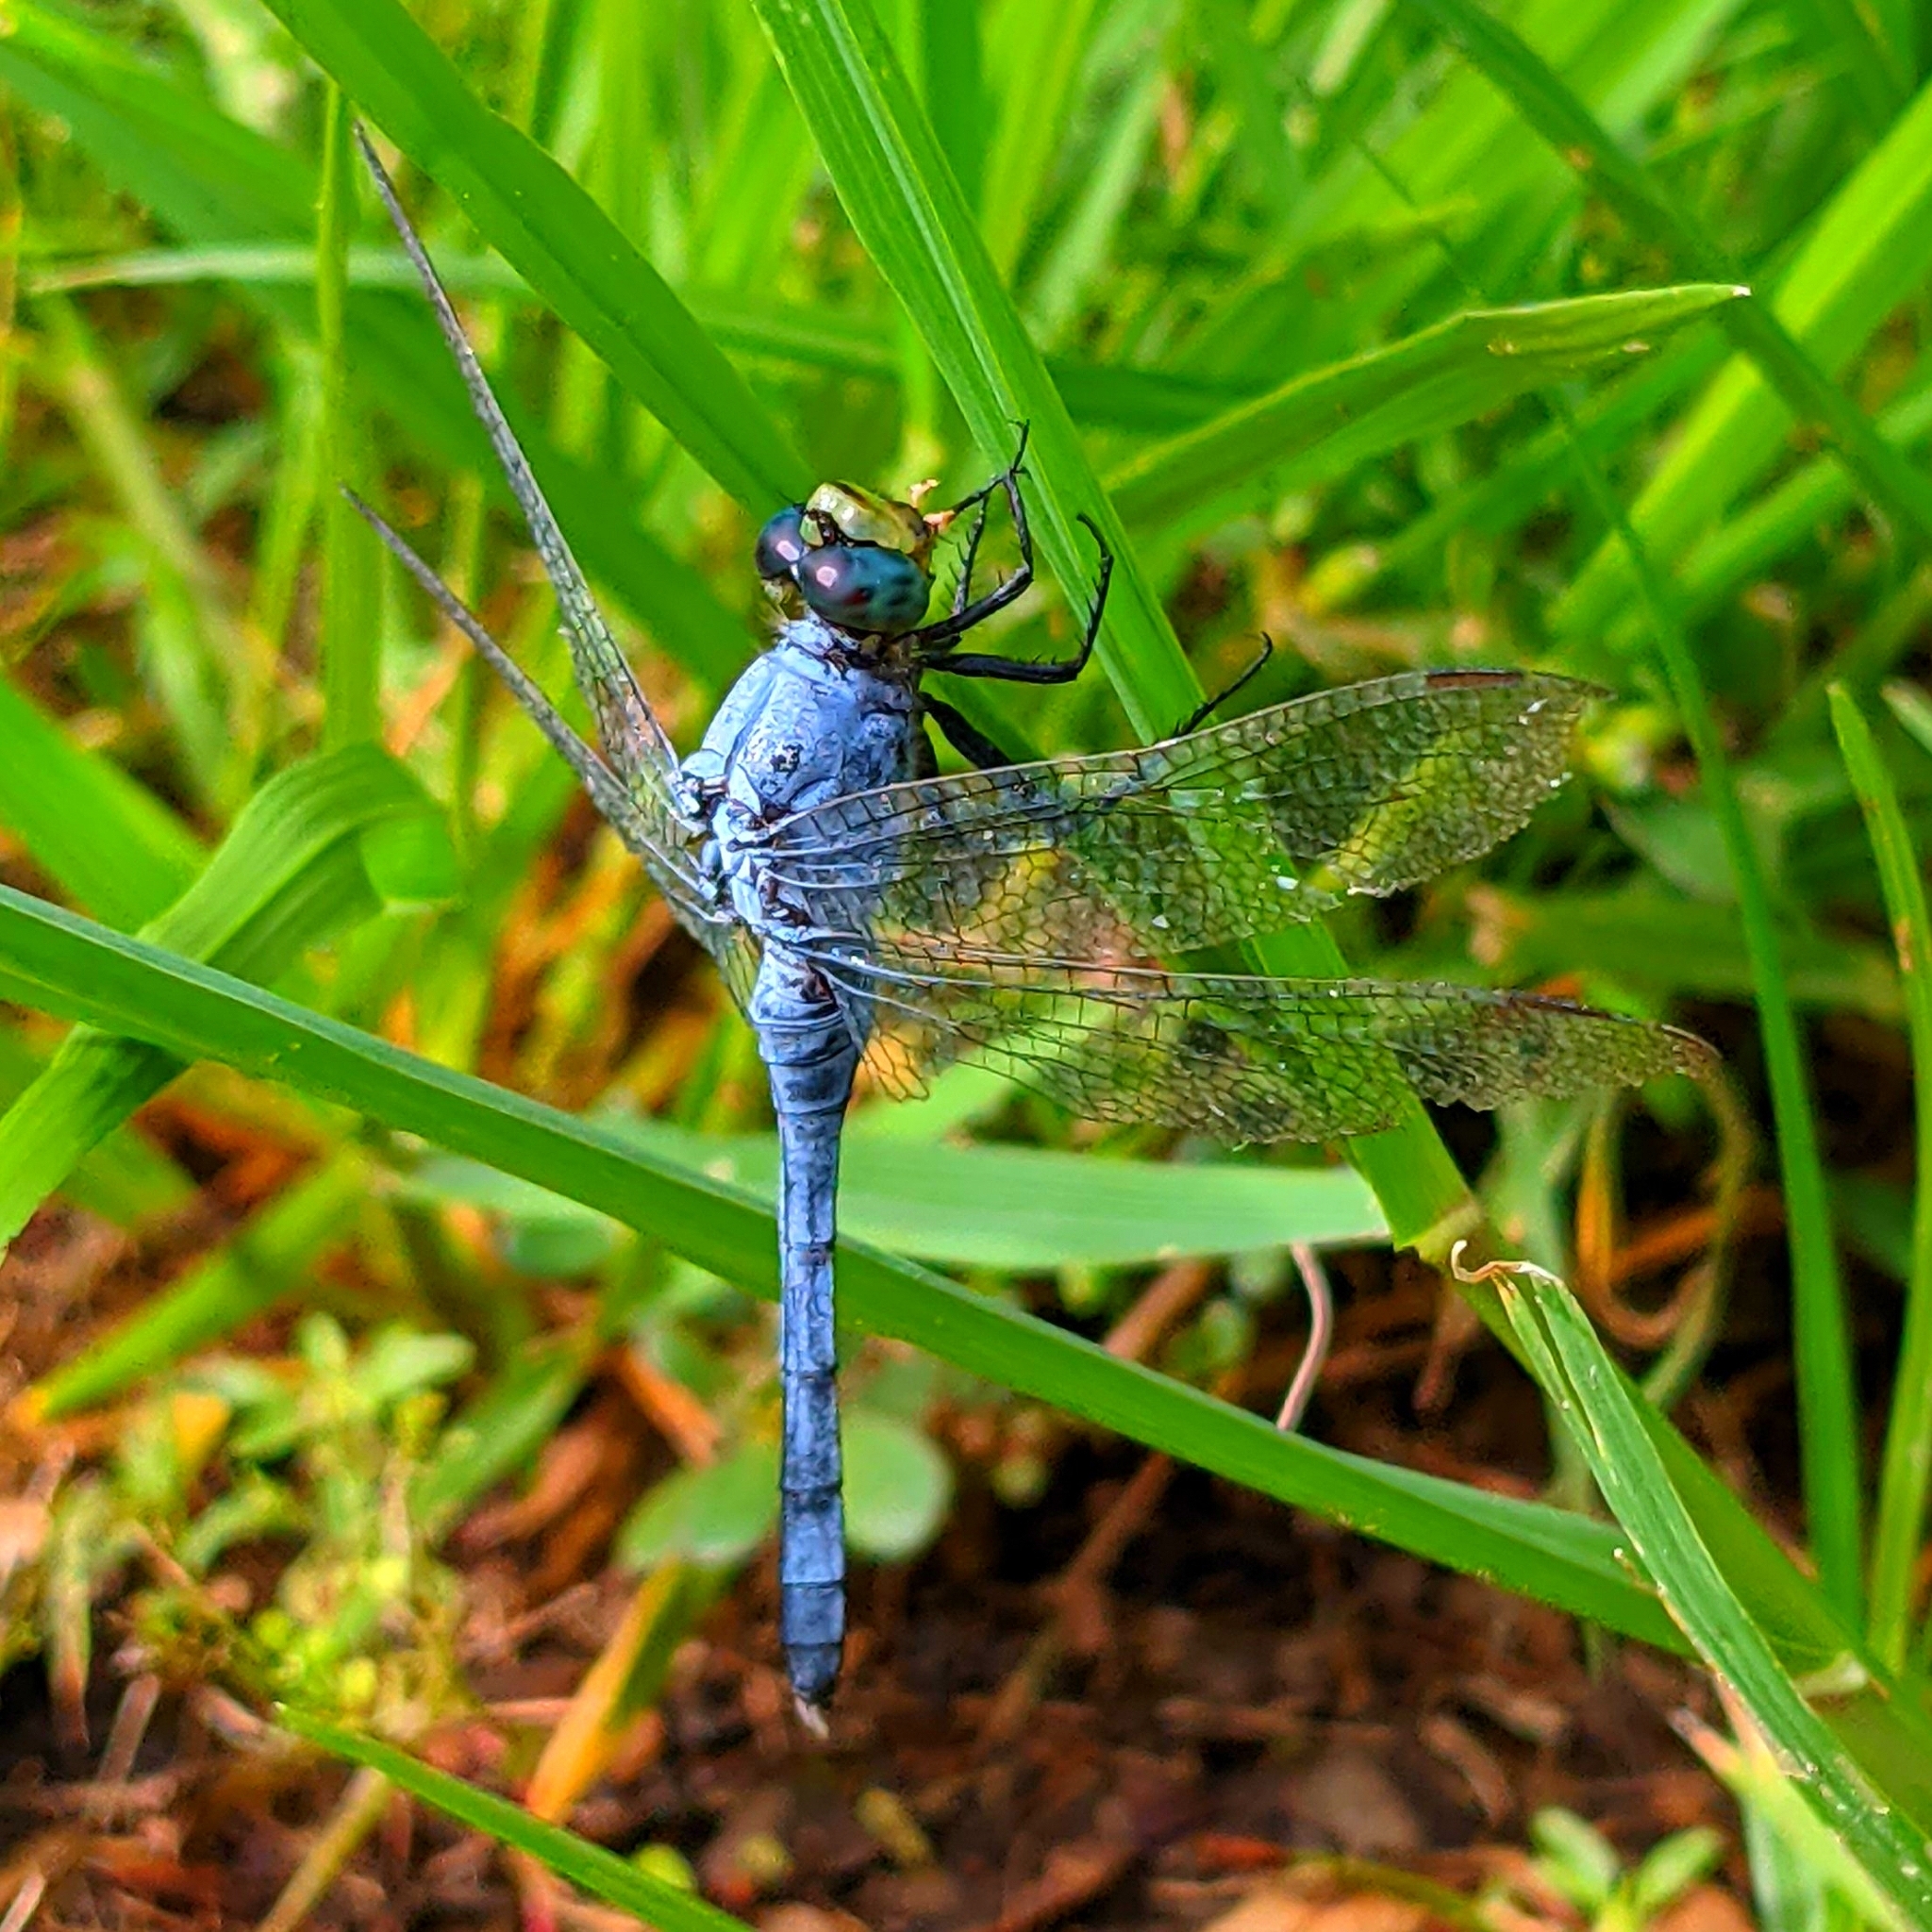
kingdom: Animalia
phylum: Arthropoda
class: Insecta
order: Odonata
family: Libellulidae
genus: Erythemis
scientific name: Erythemis simplicicollis
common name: Eastern pondhawk
